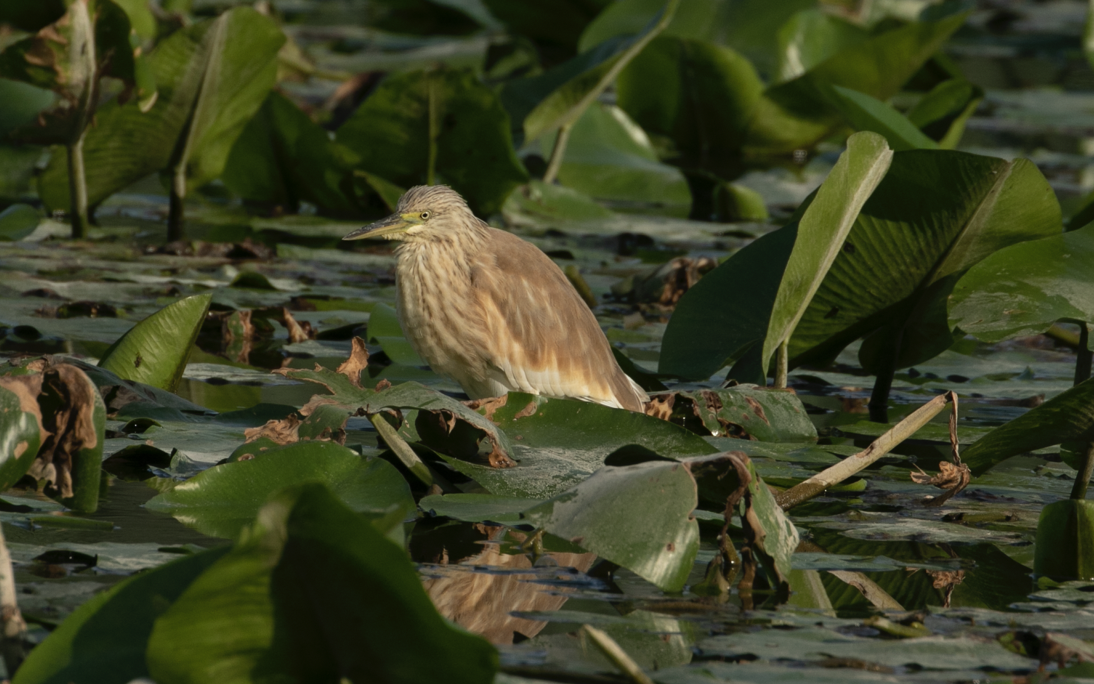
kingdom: Animalia
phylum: Chordata
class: Aves
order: Pelecaniformes
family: Ardeidae
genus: Ardeola
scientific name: Ardeola ralloides
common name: Squacco heron
